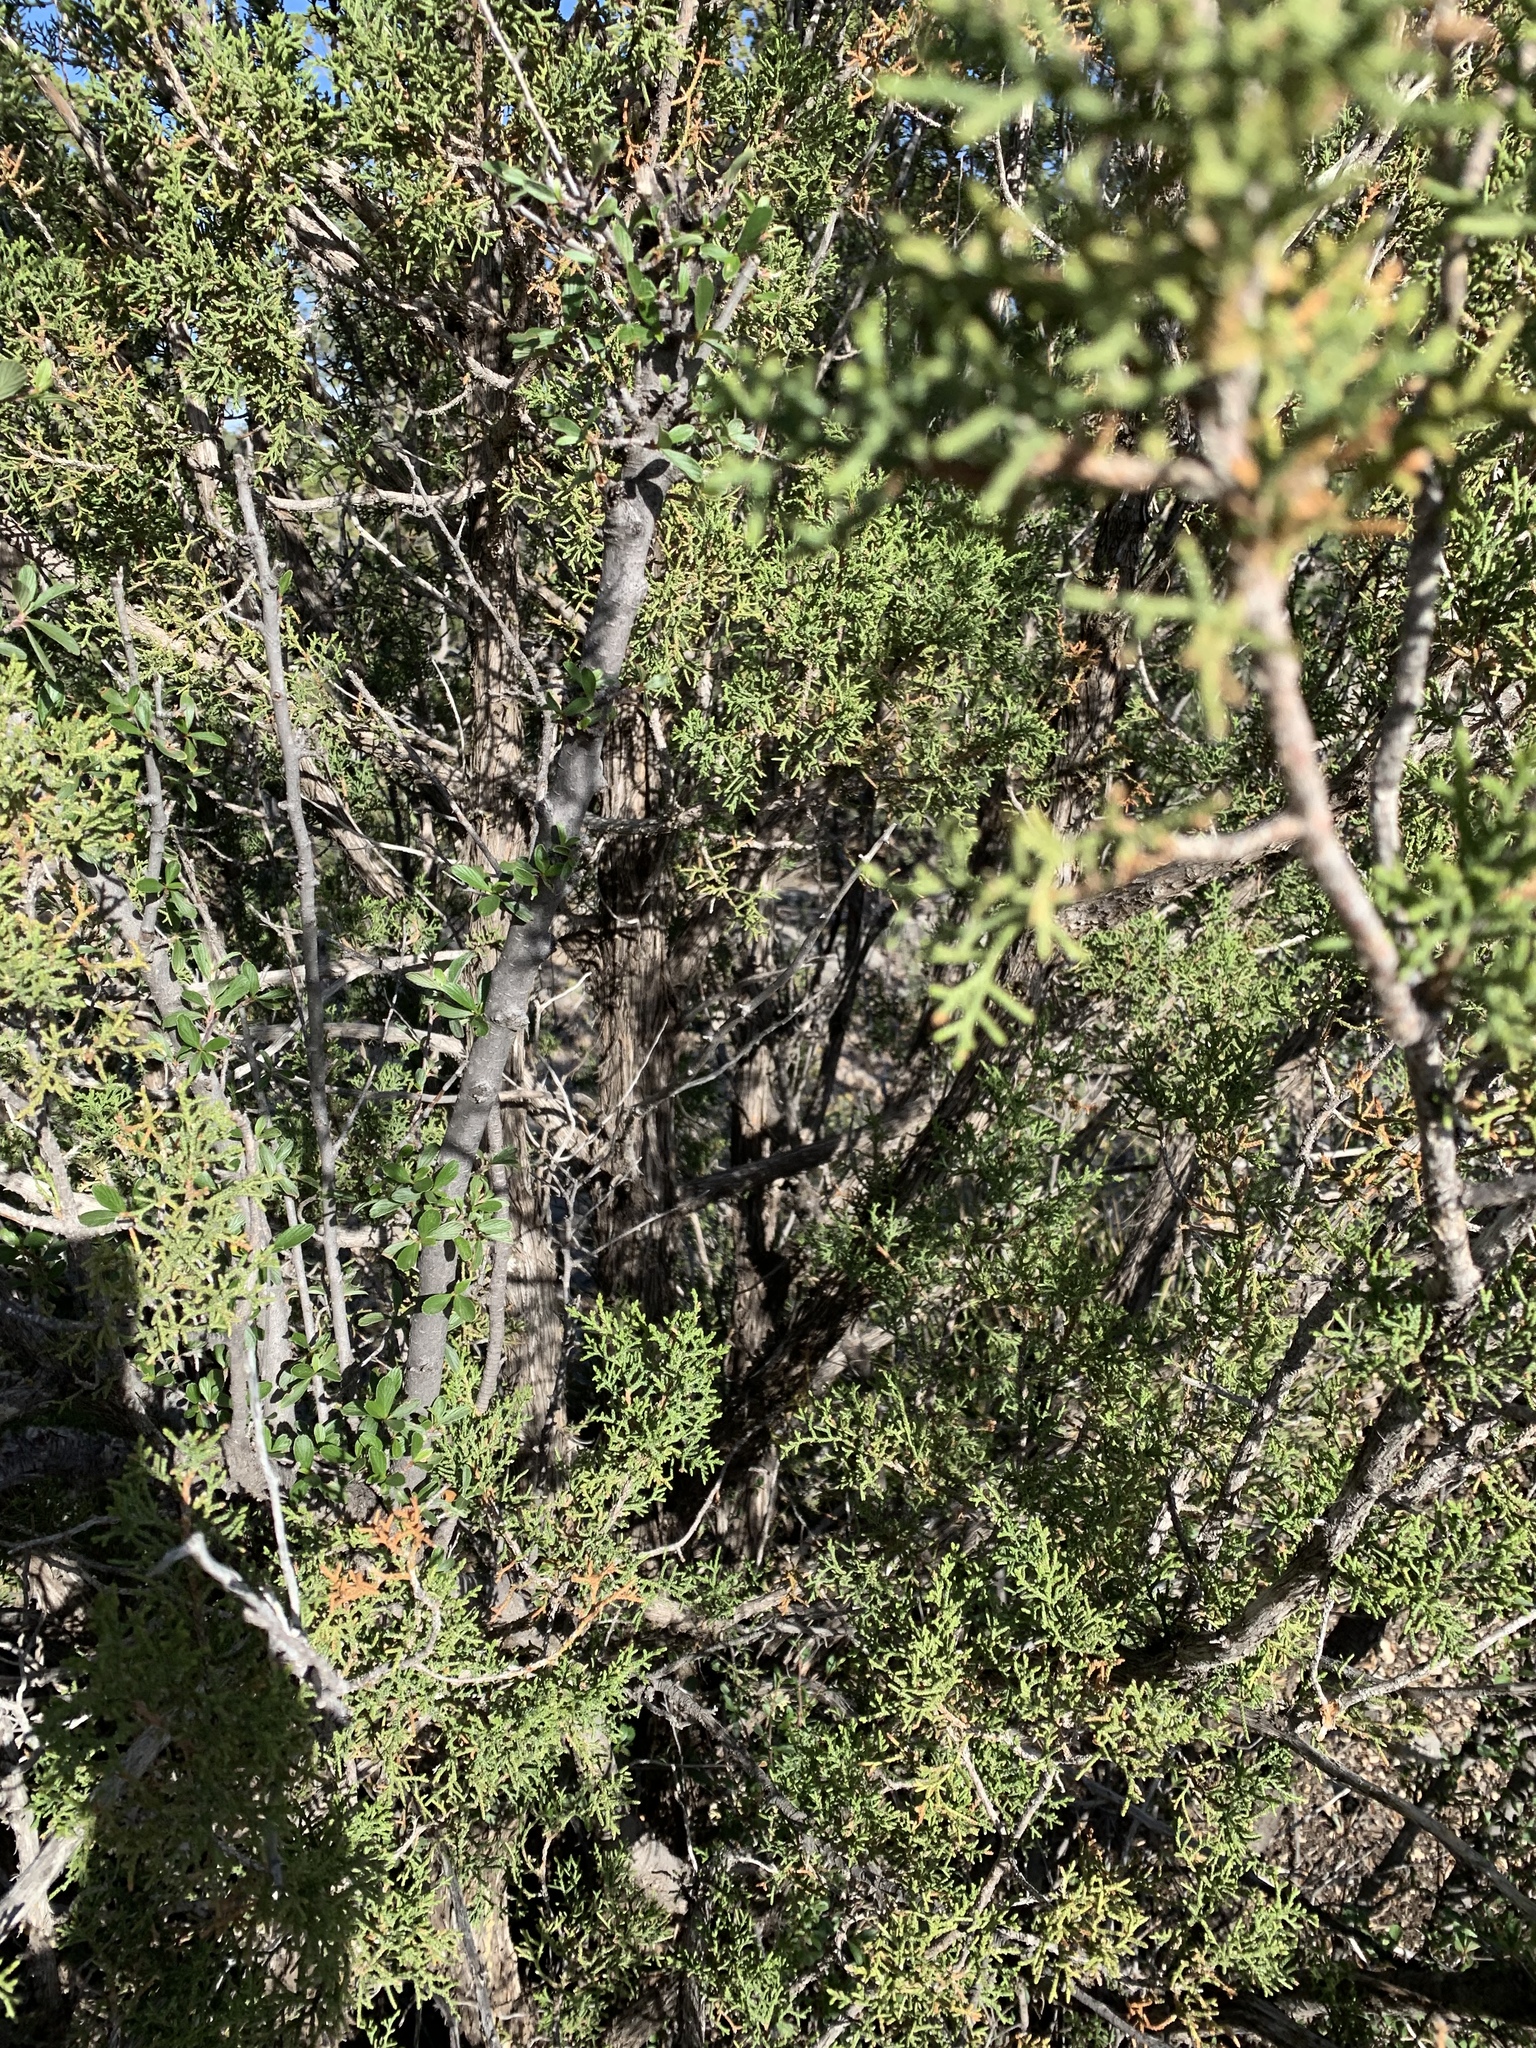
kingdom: Plantae
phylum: Tracheophyta
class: Pinopsida
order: Pinales
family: Cupressaceae
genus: Juniperus
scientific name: Juniperus monosperma
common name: One-seed juniper
